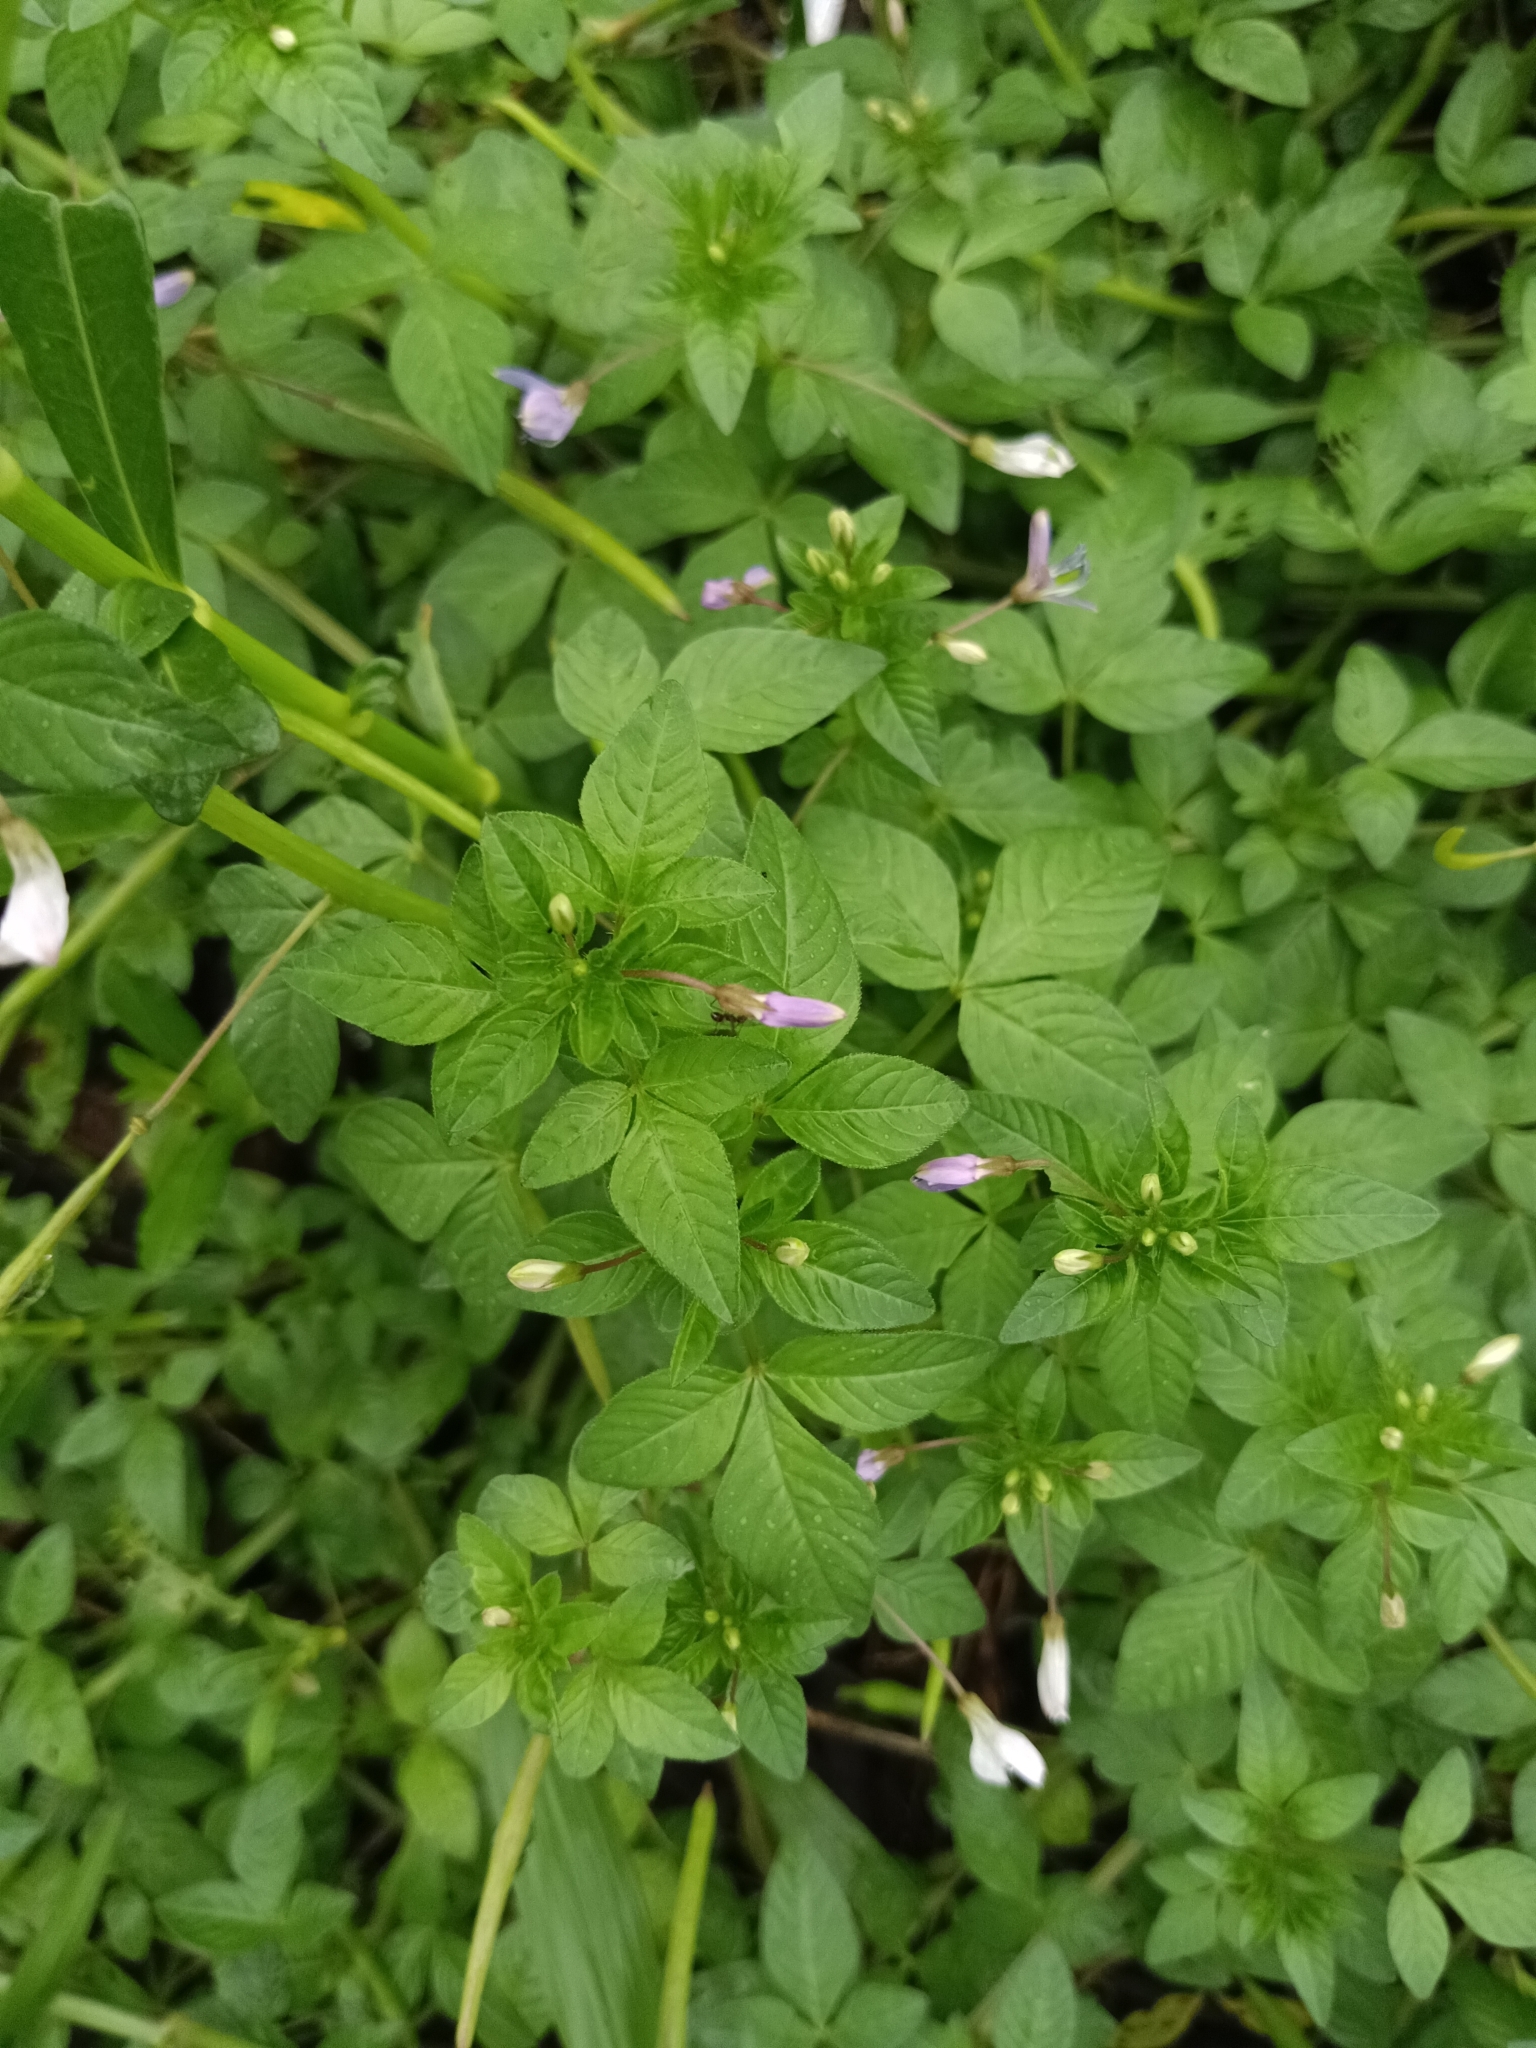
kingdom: Plantae
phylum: Tracheophyta
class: Magnoliopsida
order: Brassicales
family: Cleomaceae
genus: Sieruela
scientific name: Sieruela rutidosperma
